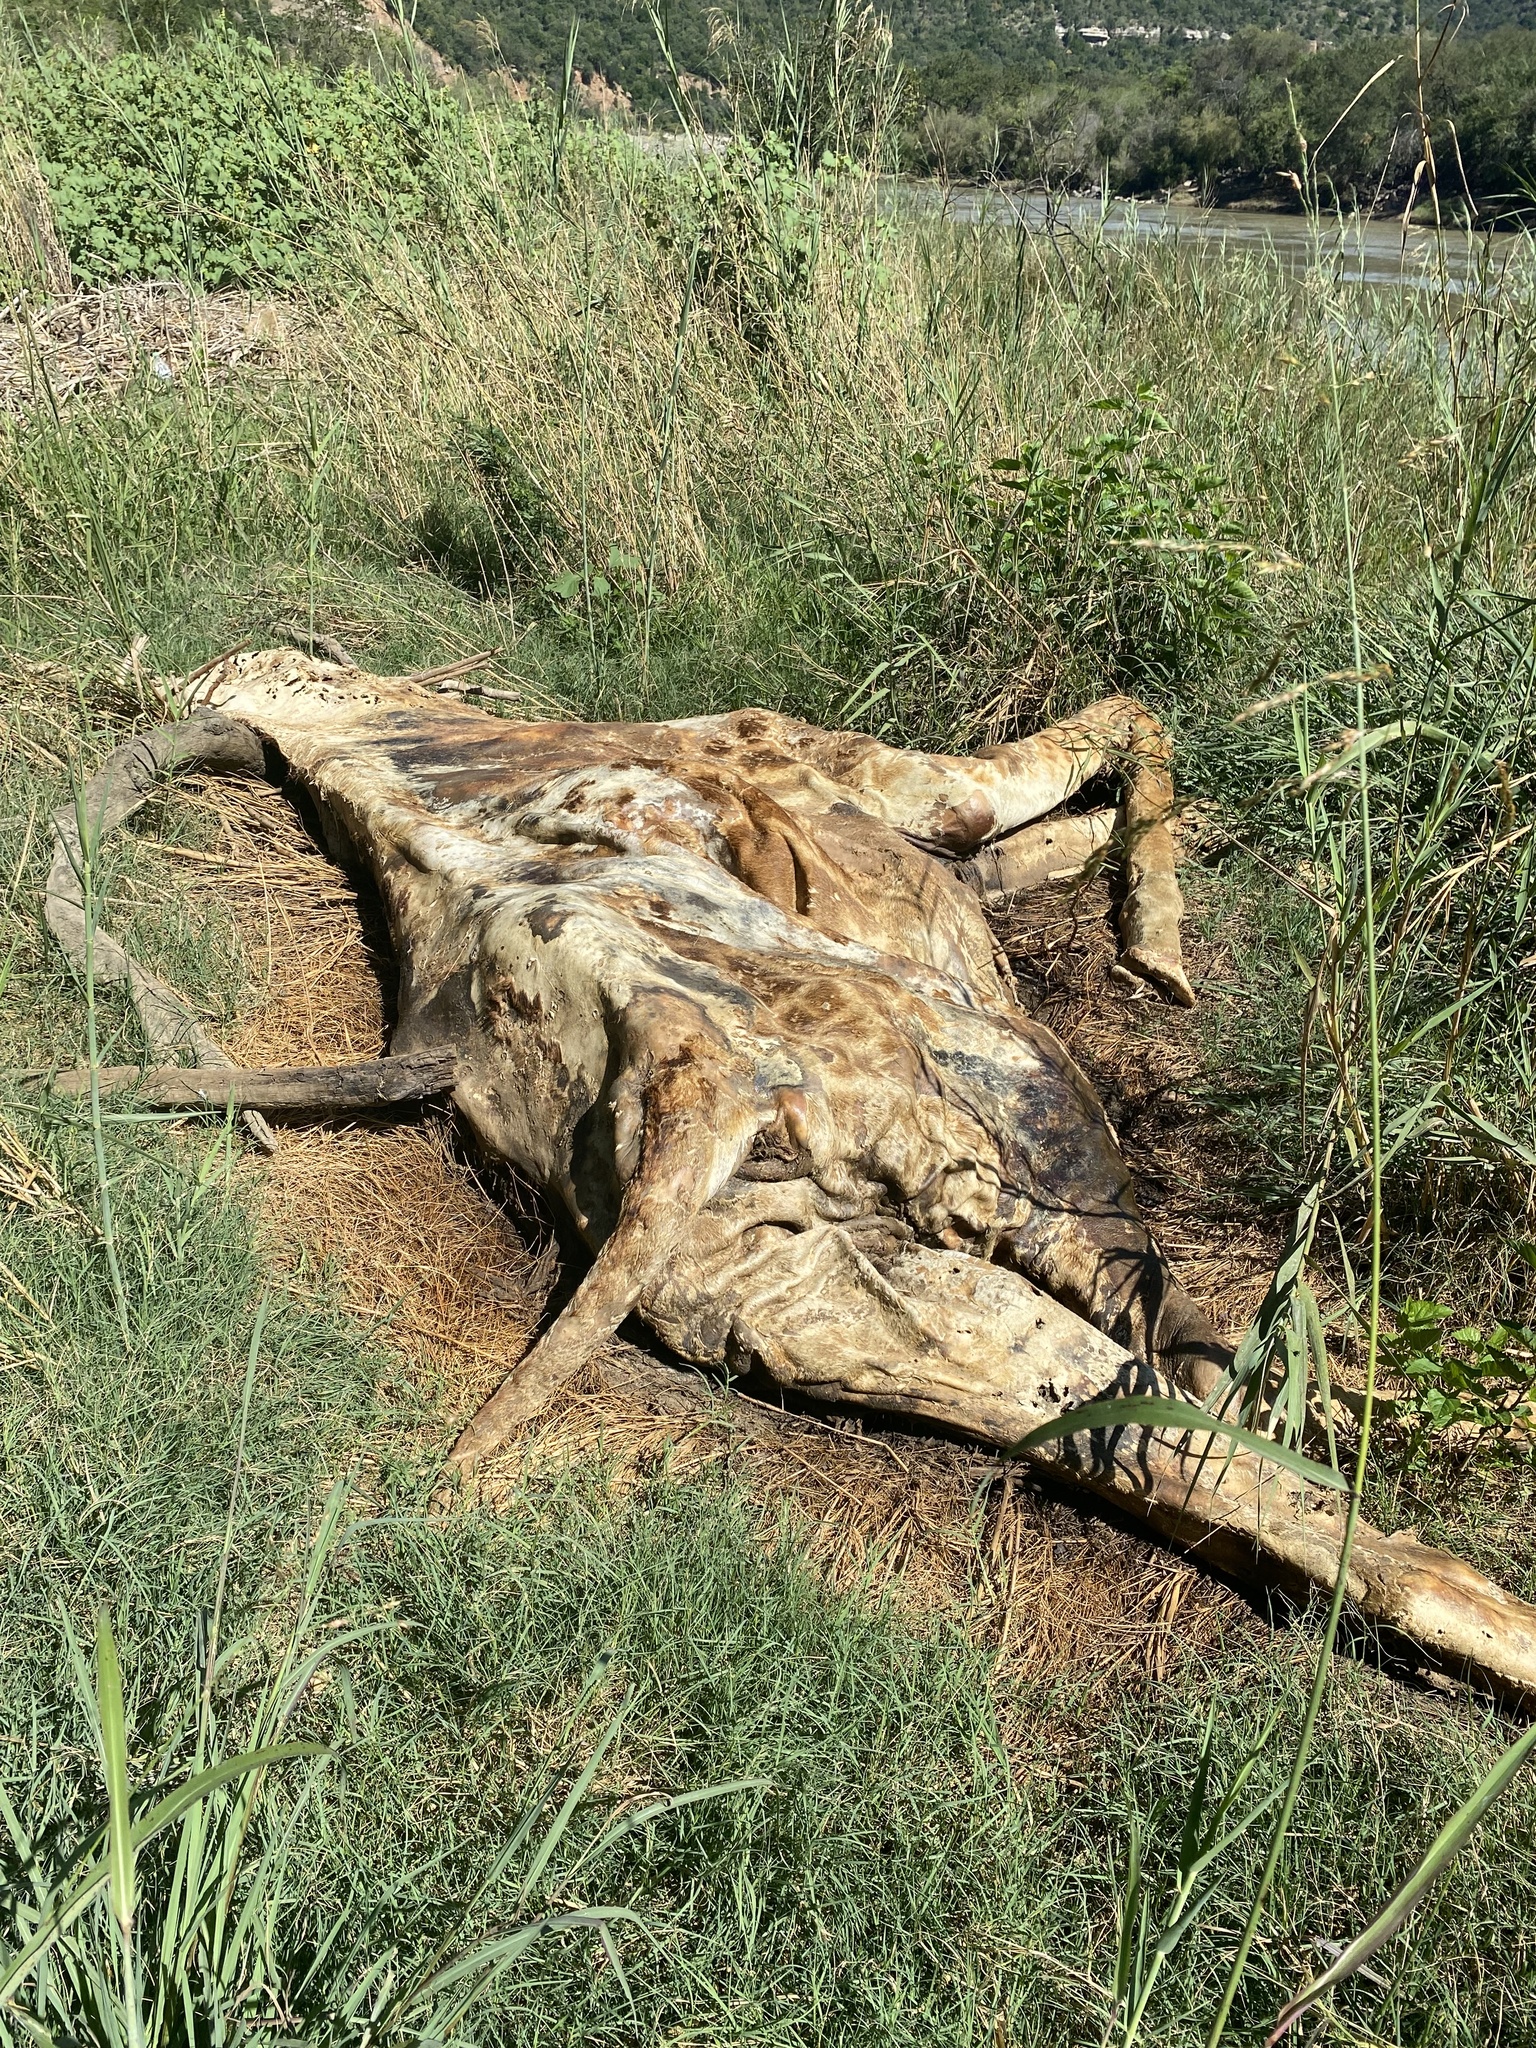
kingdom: Animalia
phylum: Chordata
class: Mammalia
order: Artiodactyla
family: Giraffidae
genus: Giraffa
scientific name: Giraffa giraffa
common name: Southern giraffe
